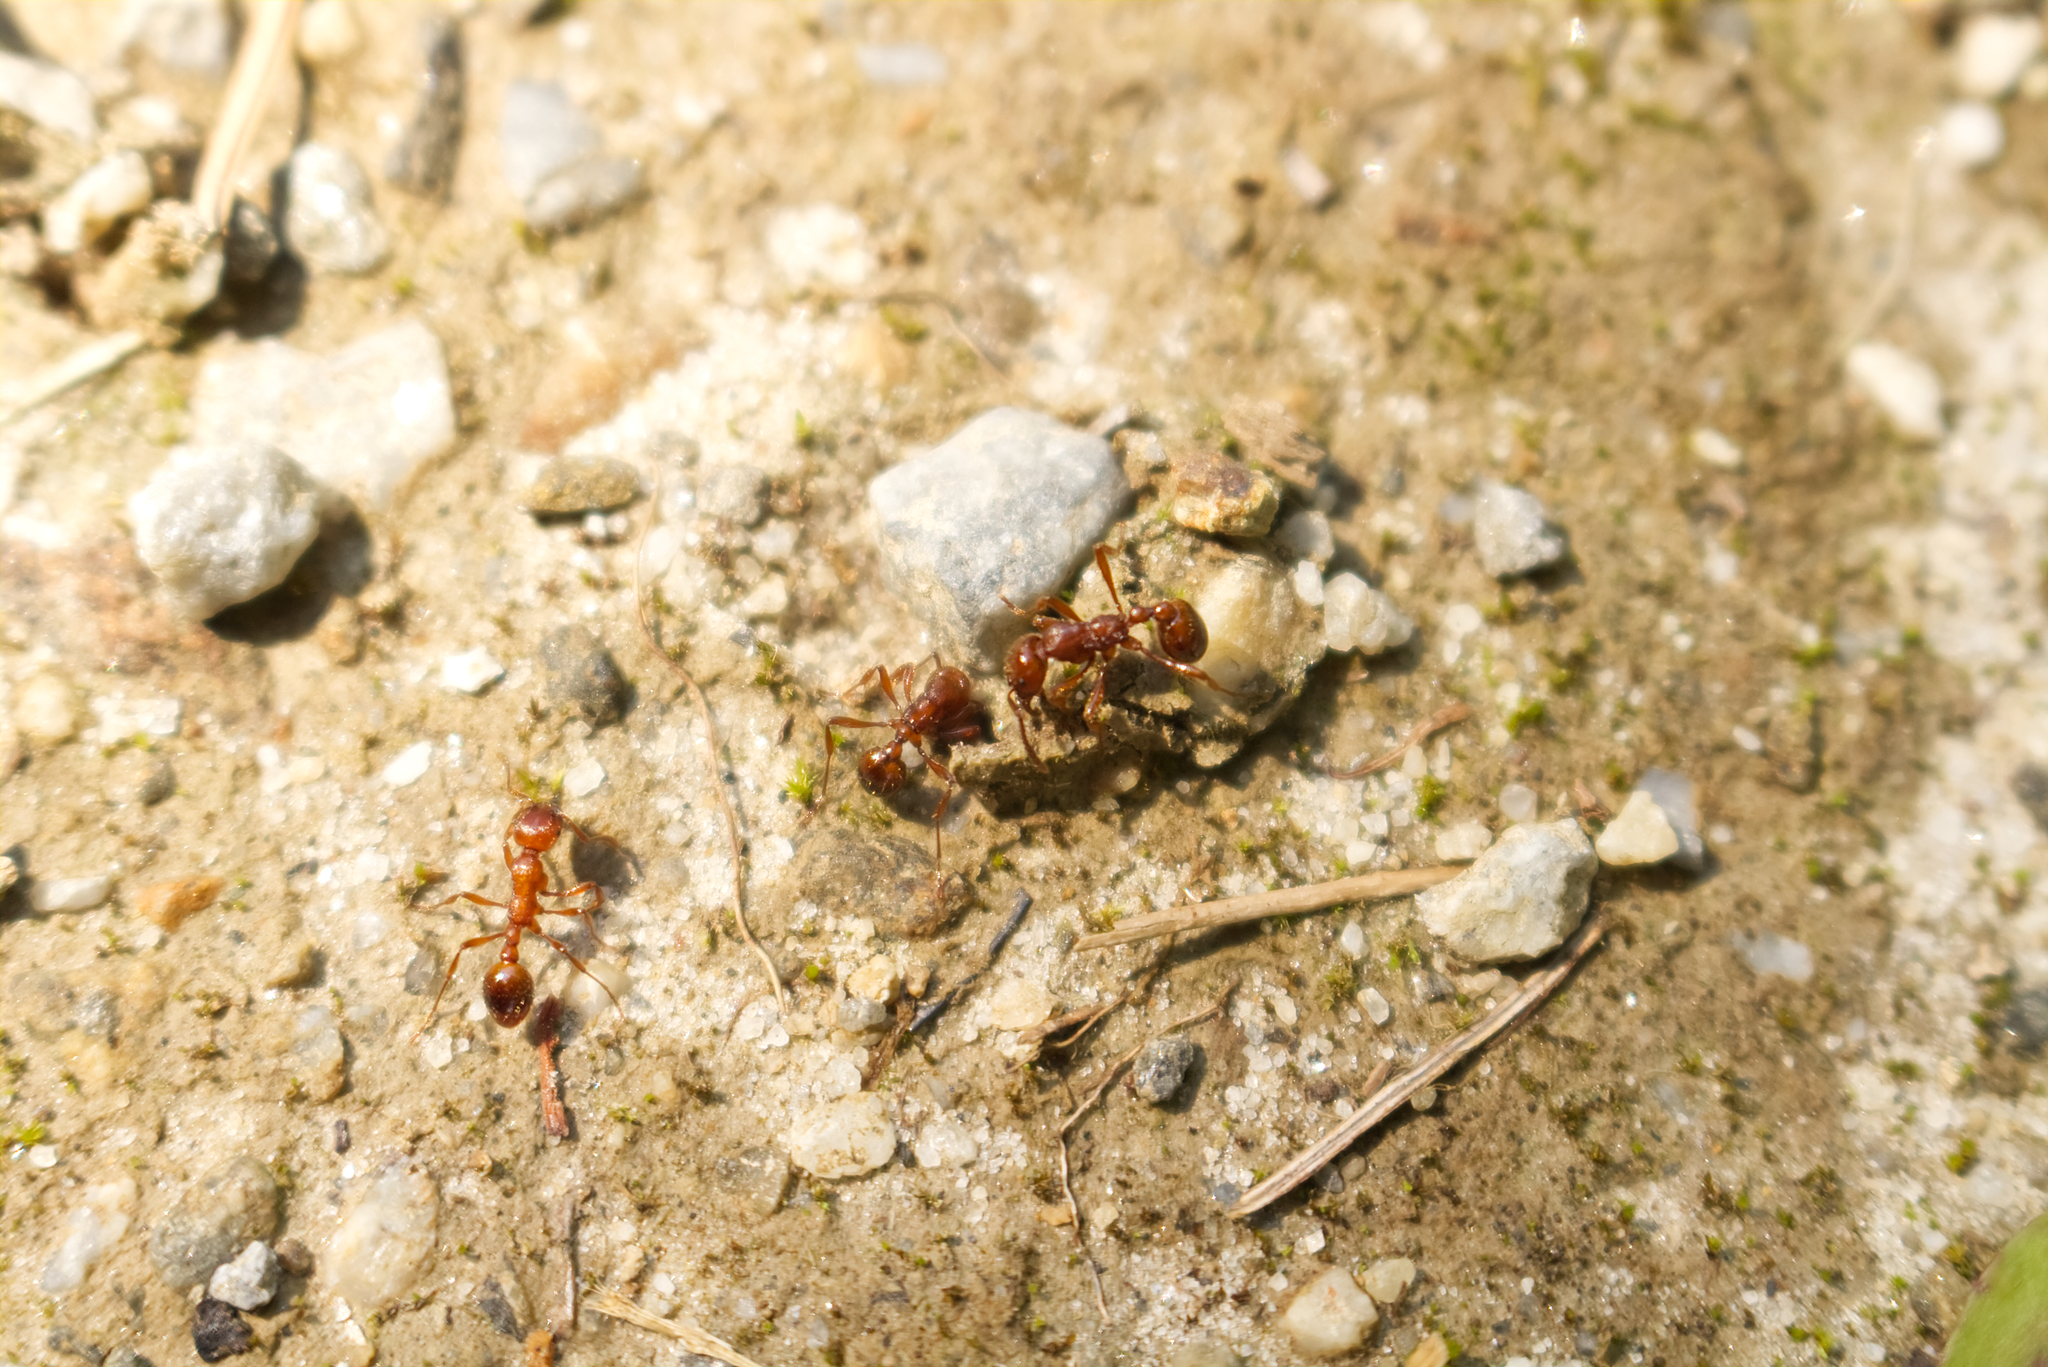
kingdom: Animalia
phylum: Arthropoda
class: Insecta
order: Hymenoptera
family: Formicidae
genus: Manica
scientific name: Manica rubida
